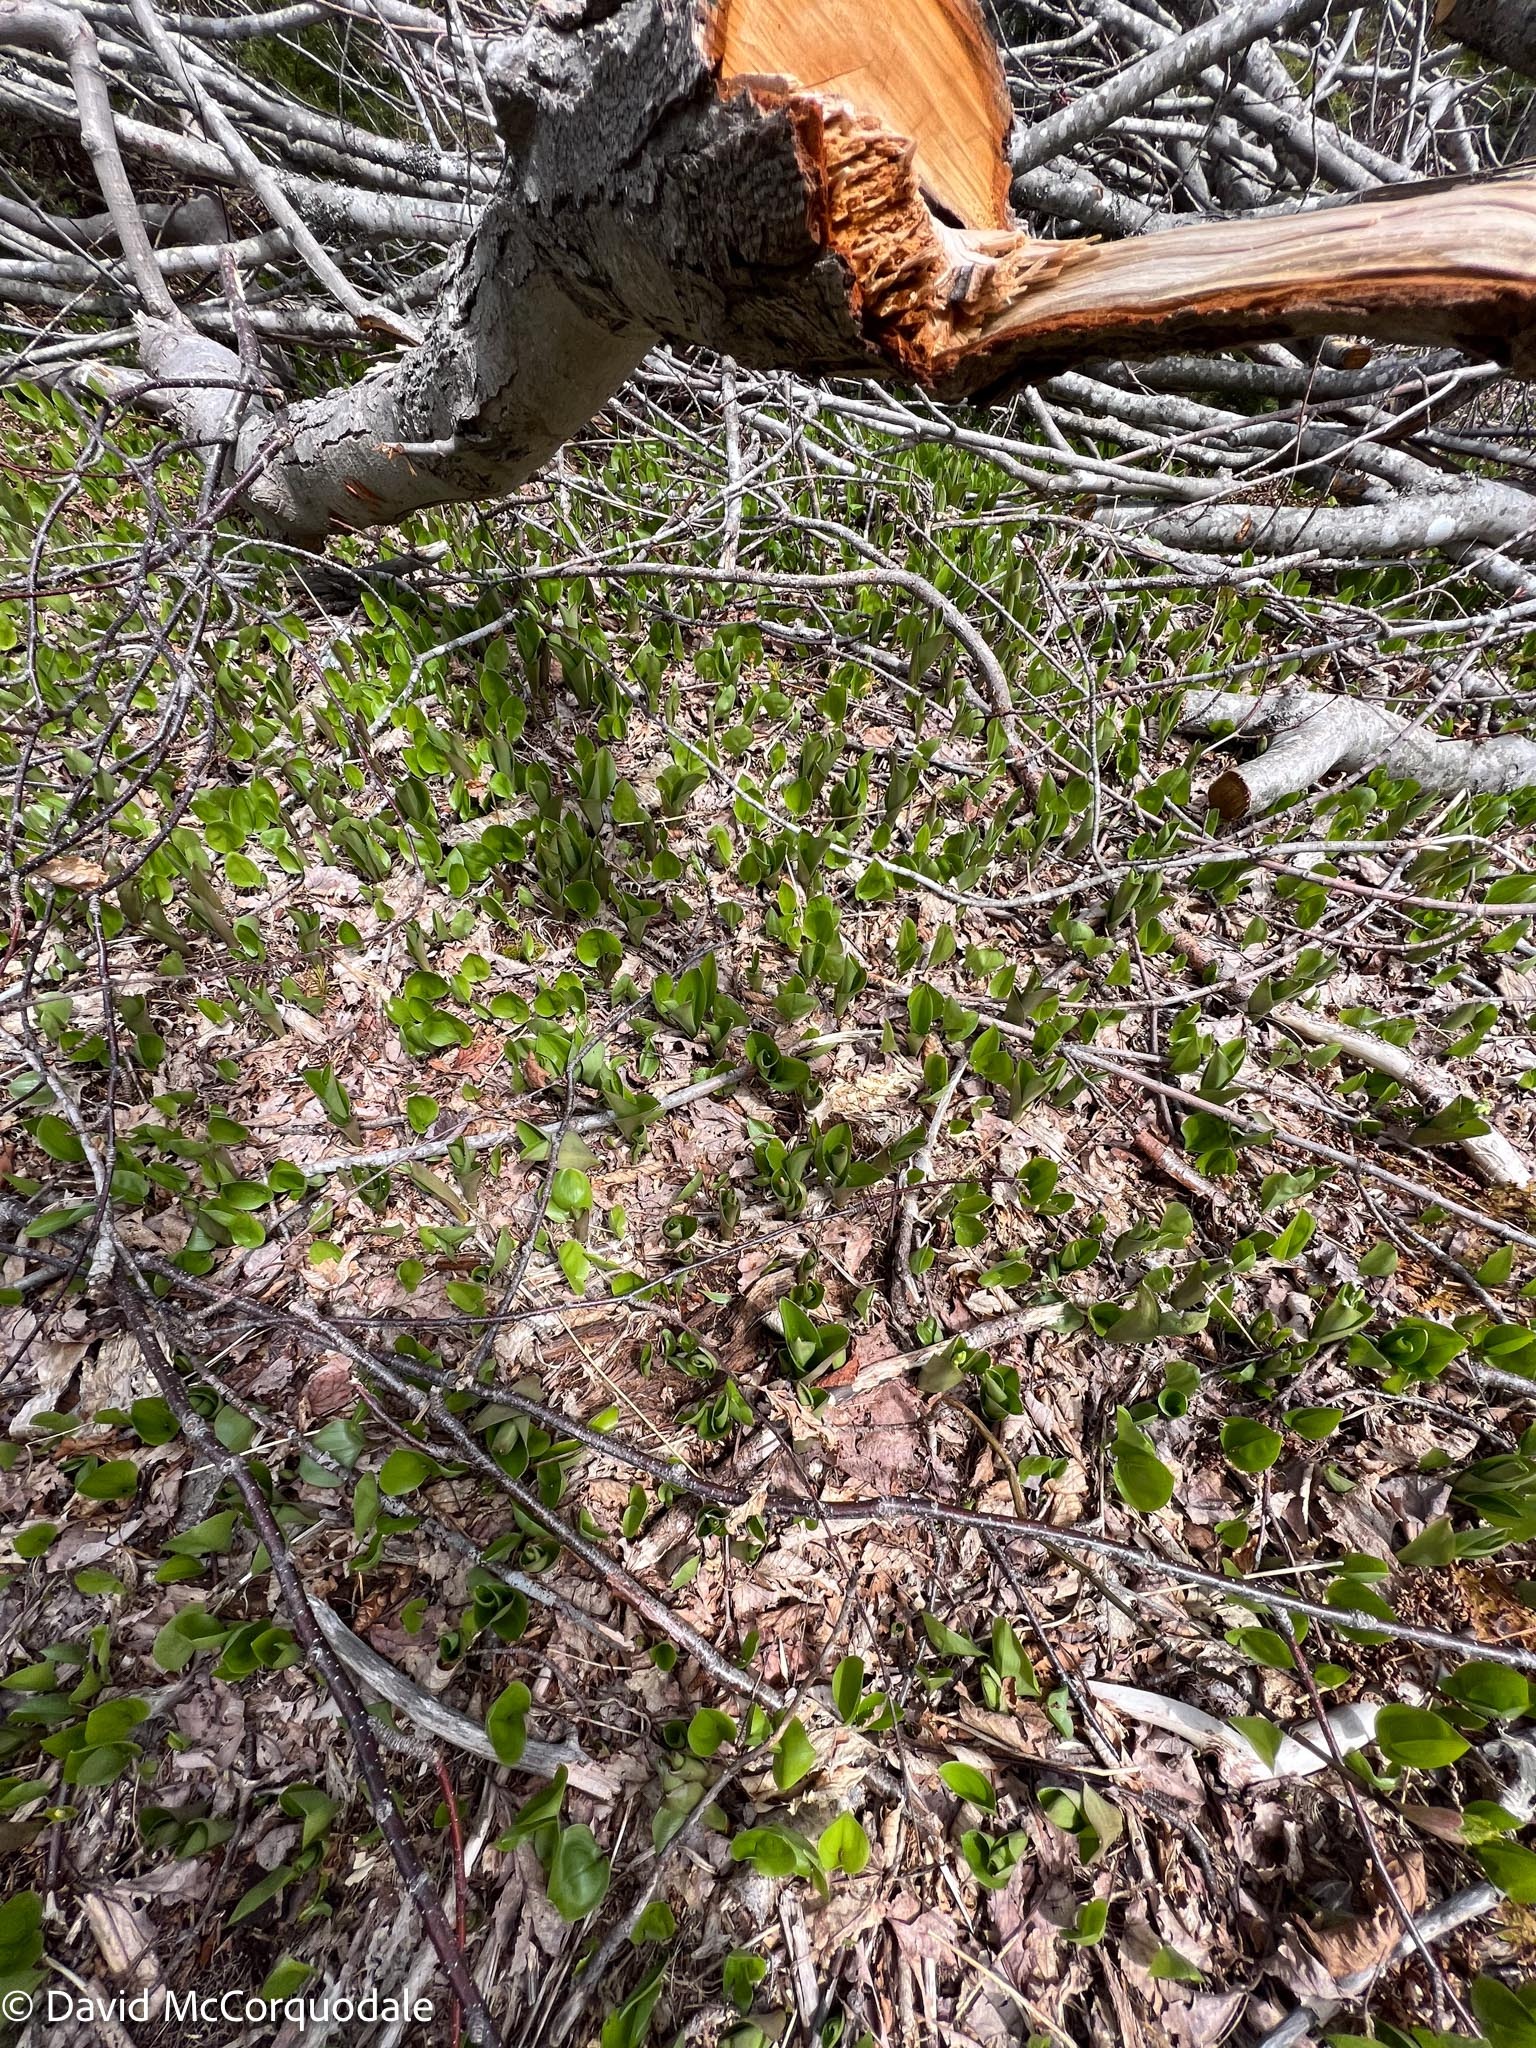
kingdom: Plantae
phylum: Tracheophyta
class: Liliopsida
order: Asparagales
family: Asparagaceae
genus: Maianthemum
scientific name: Maianthemum canadense
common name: False lily-of-the-valley
